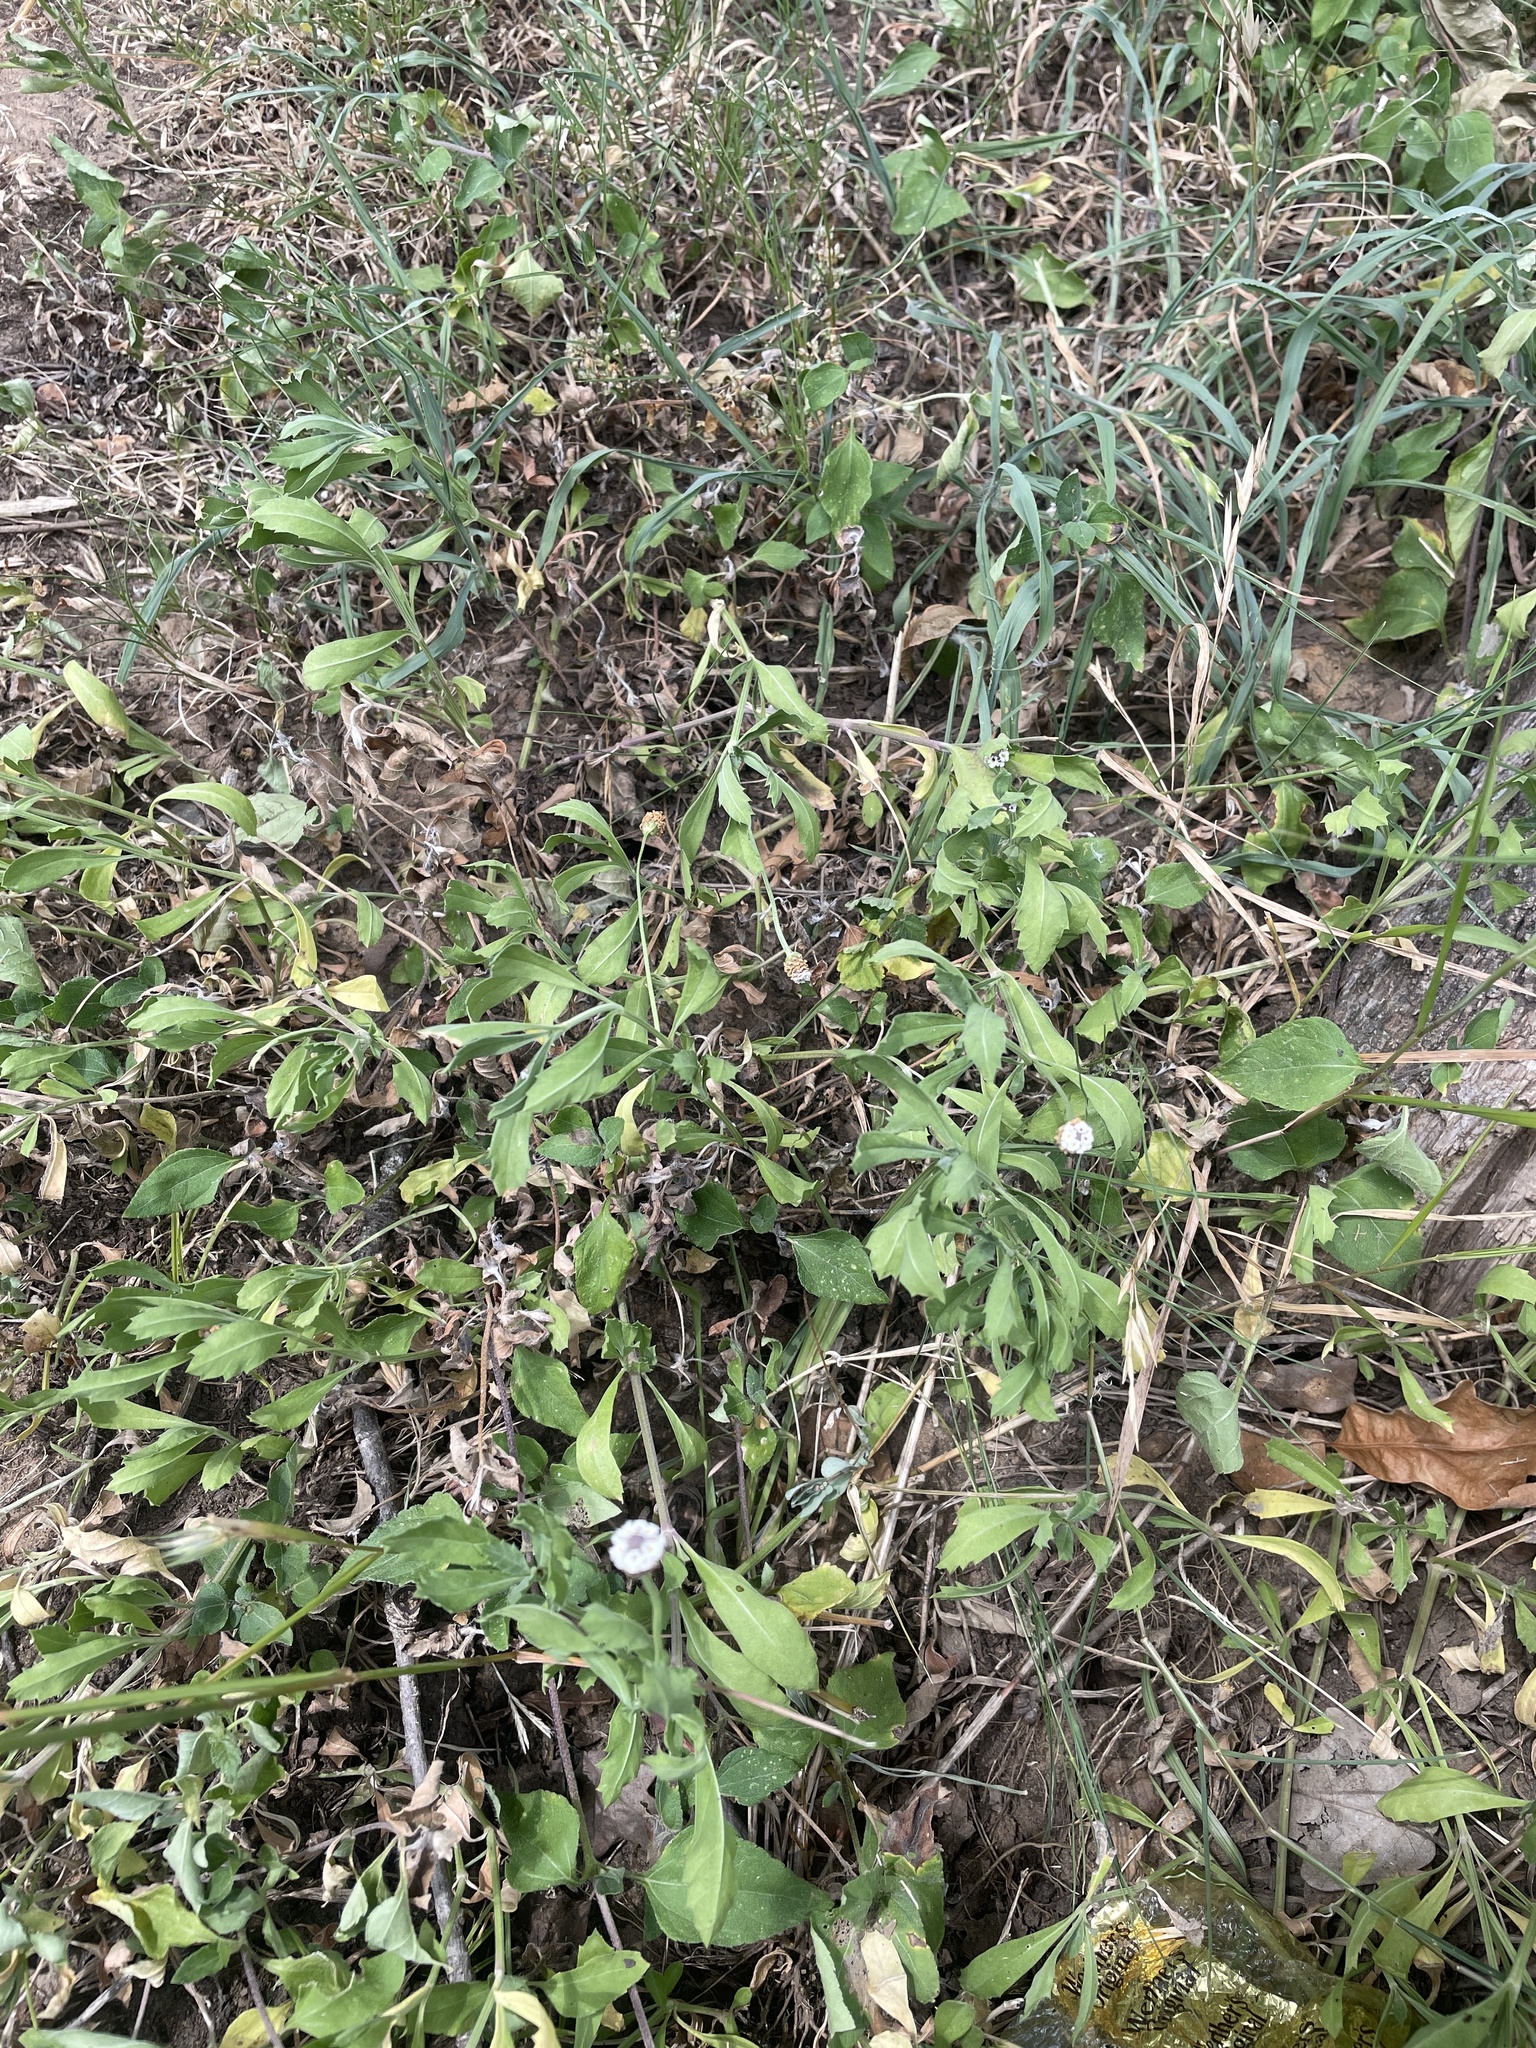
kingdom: Plantae
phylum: Tracheophyta
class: Magnoliopsida
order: Lamiales
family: Verbenaceae
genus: Phyla
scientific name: Phyla nodiflora
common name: Frogfruit
